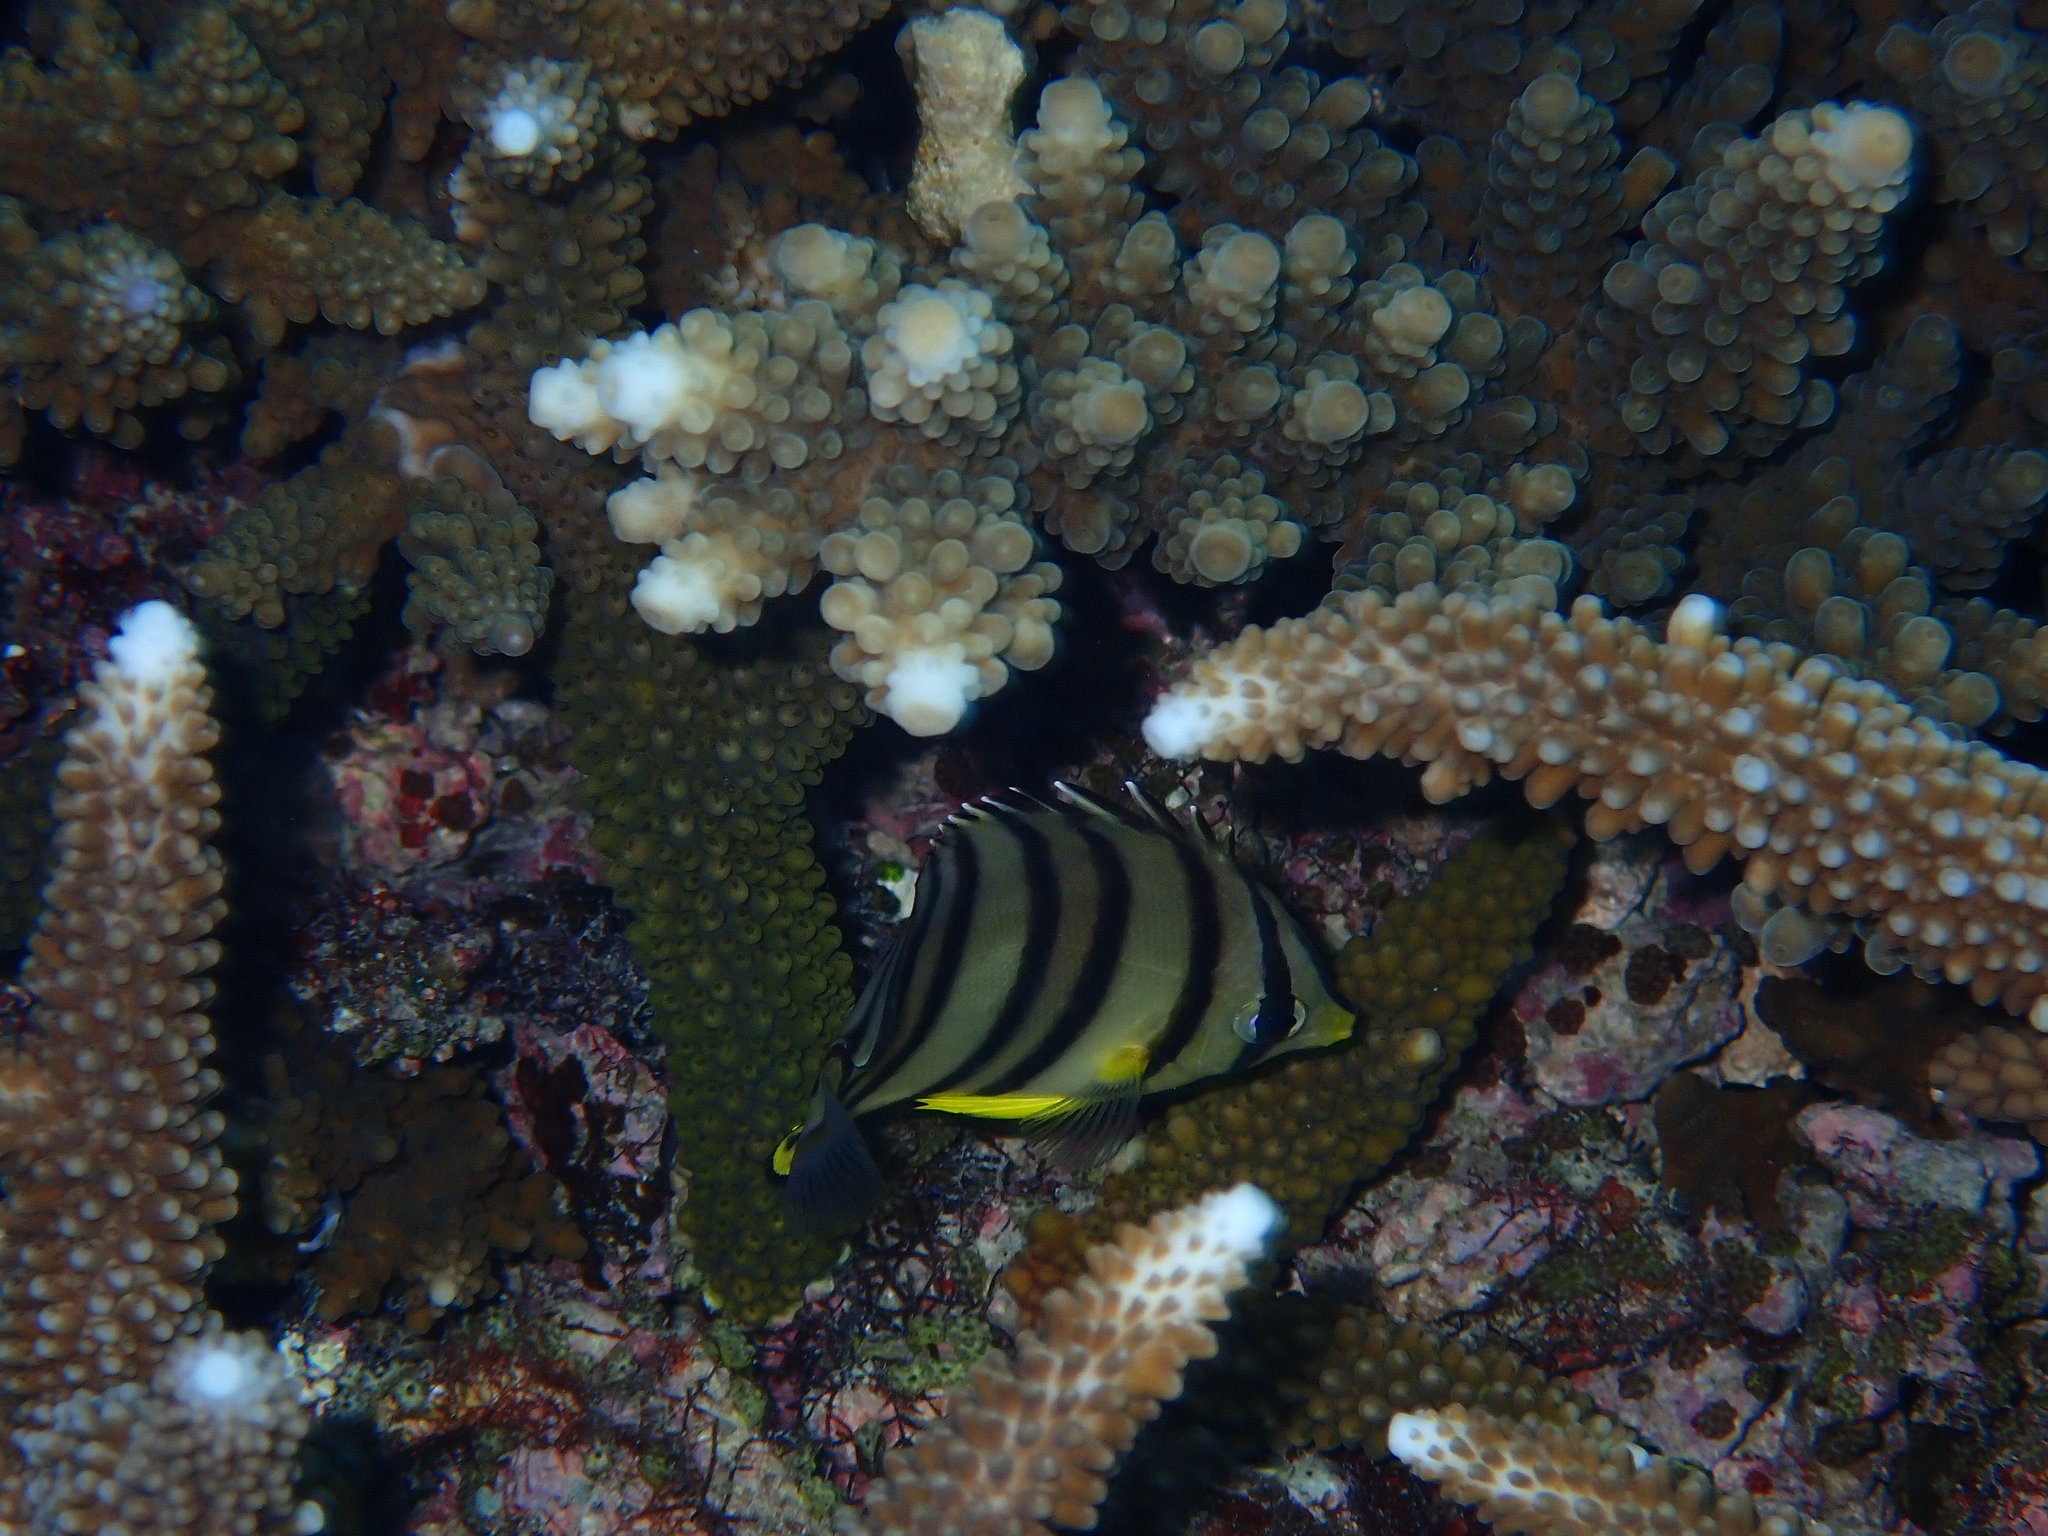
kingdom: Animalia
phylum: Chordata
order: Perciformes
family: Chaetodontidae
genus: Chaetodon
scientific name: Chaetodon octofasciatus
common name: Eightband butterflyfish
